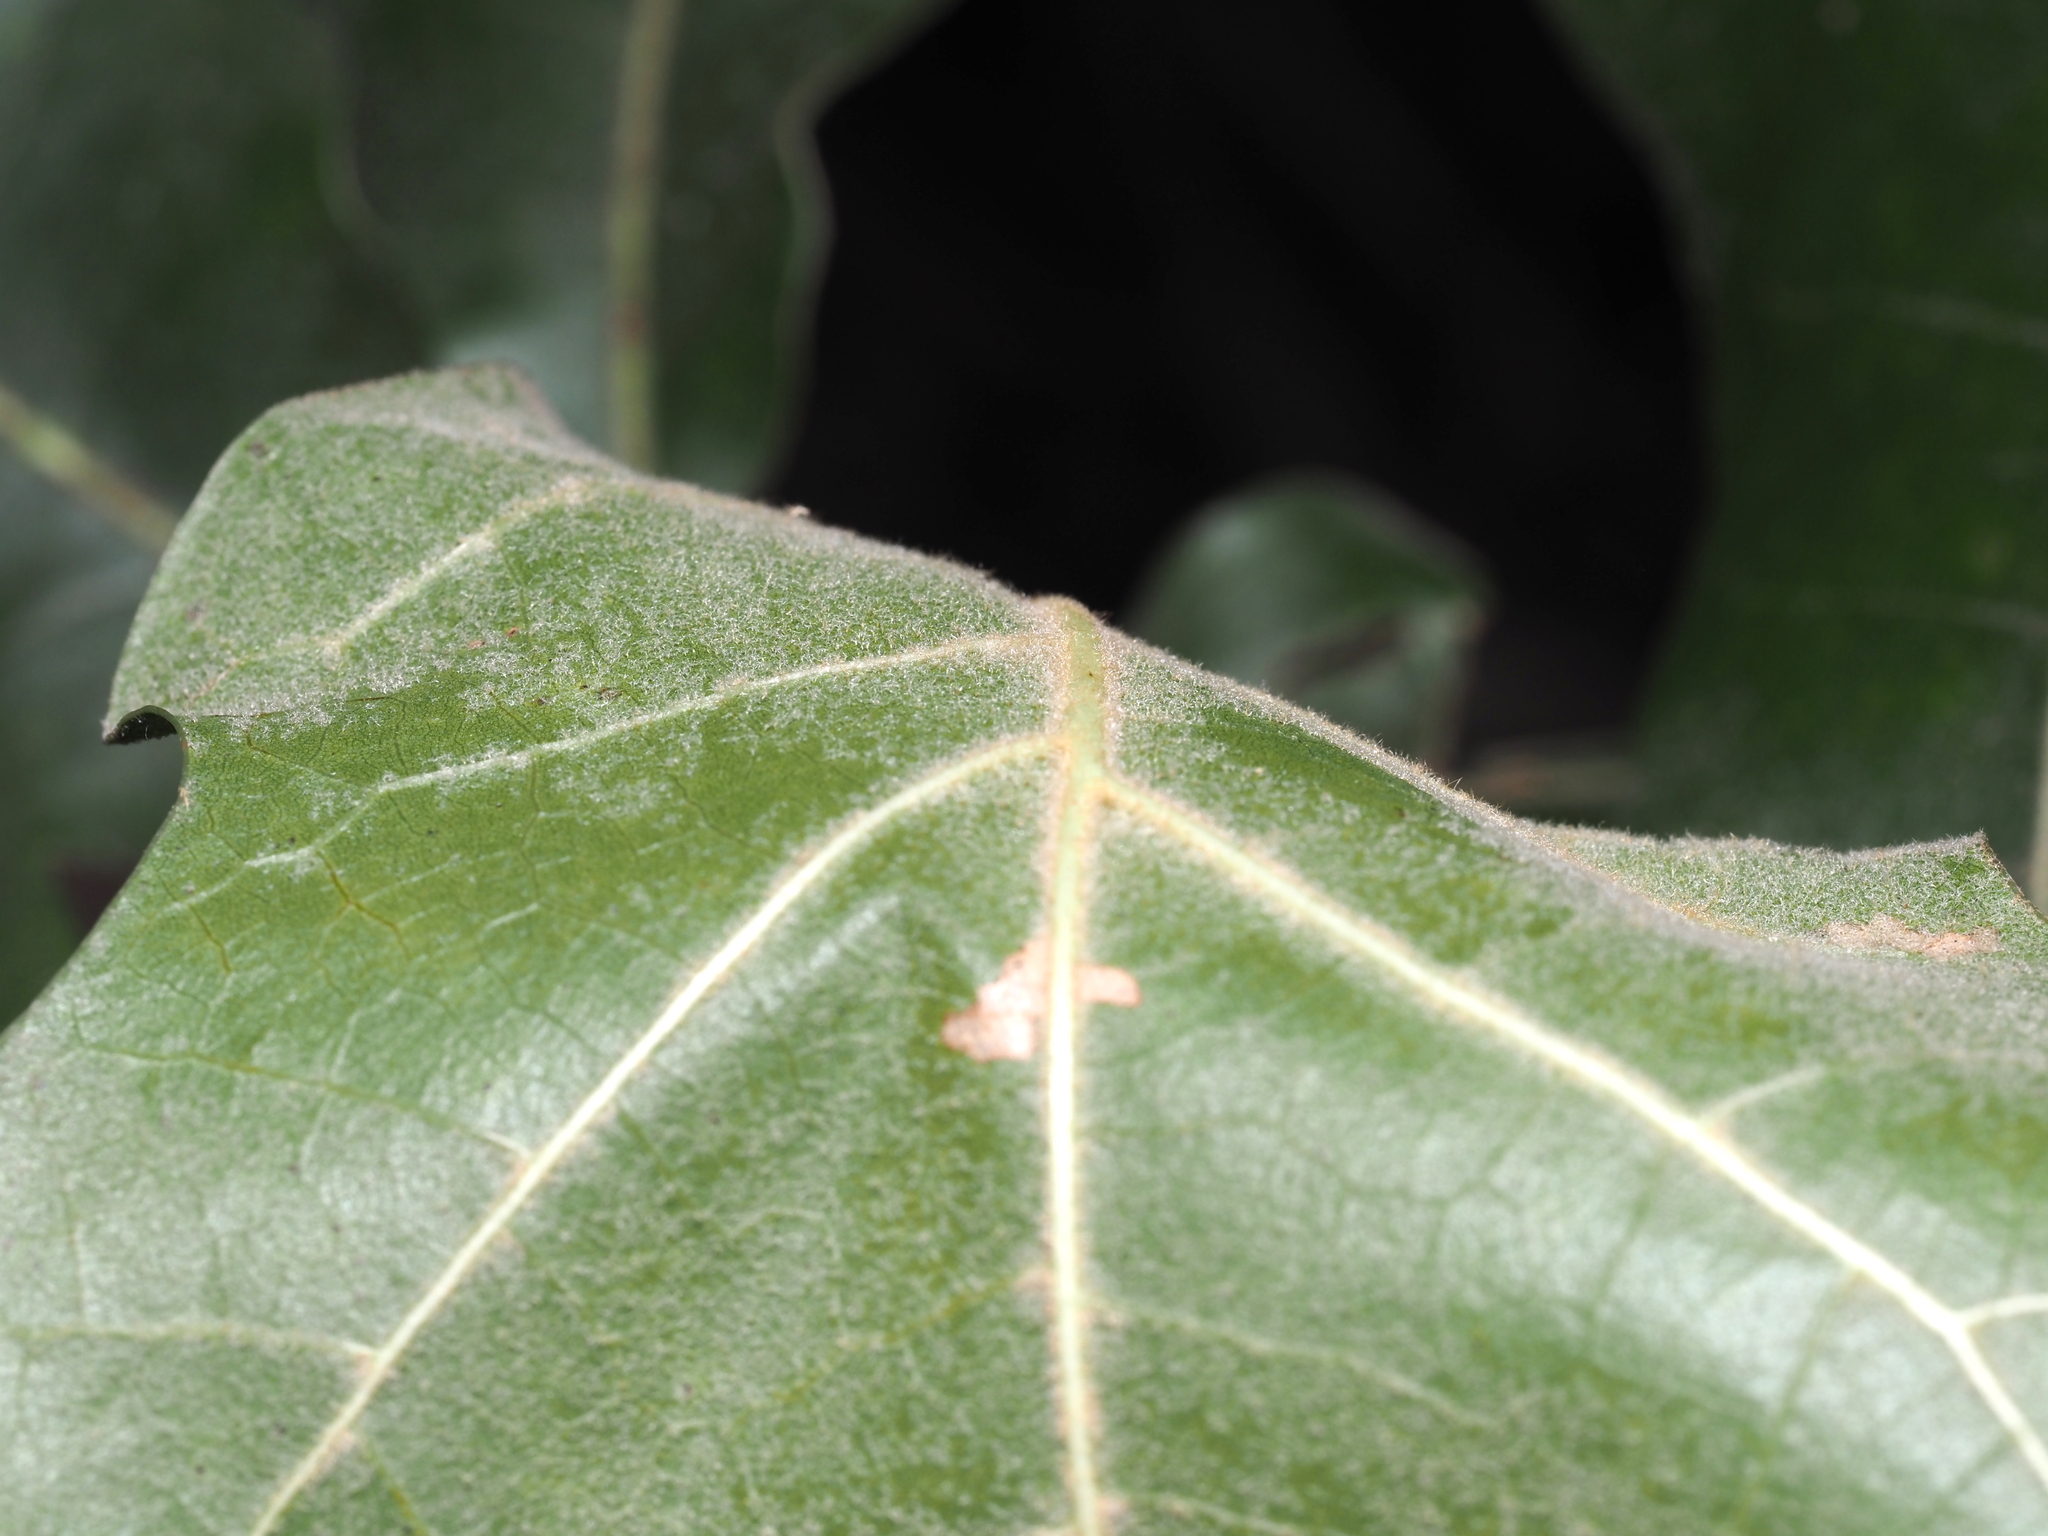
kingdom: Plantae
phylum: Tracheophyta
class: Magnoliopsida
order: Fagales
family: Fagaceae
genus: Quercus
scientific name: Quercus marilandica
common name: Blackjack oak
